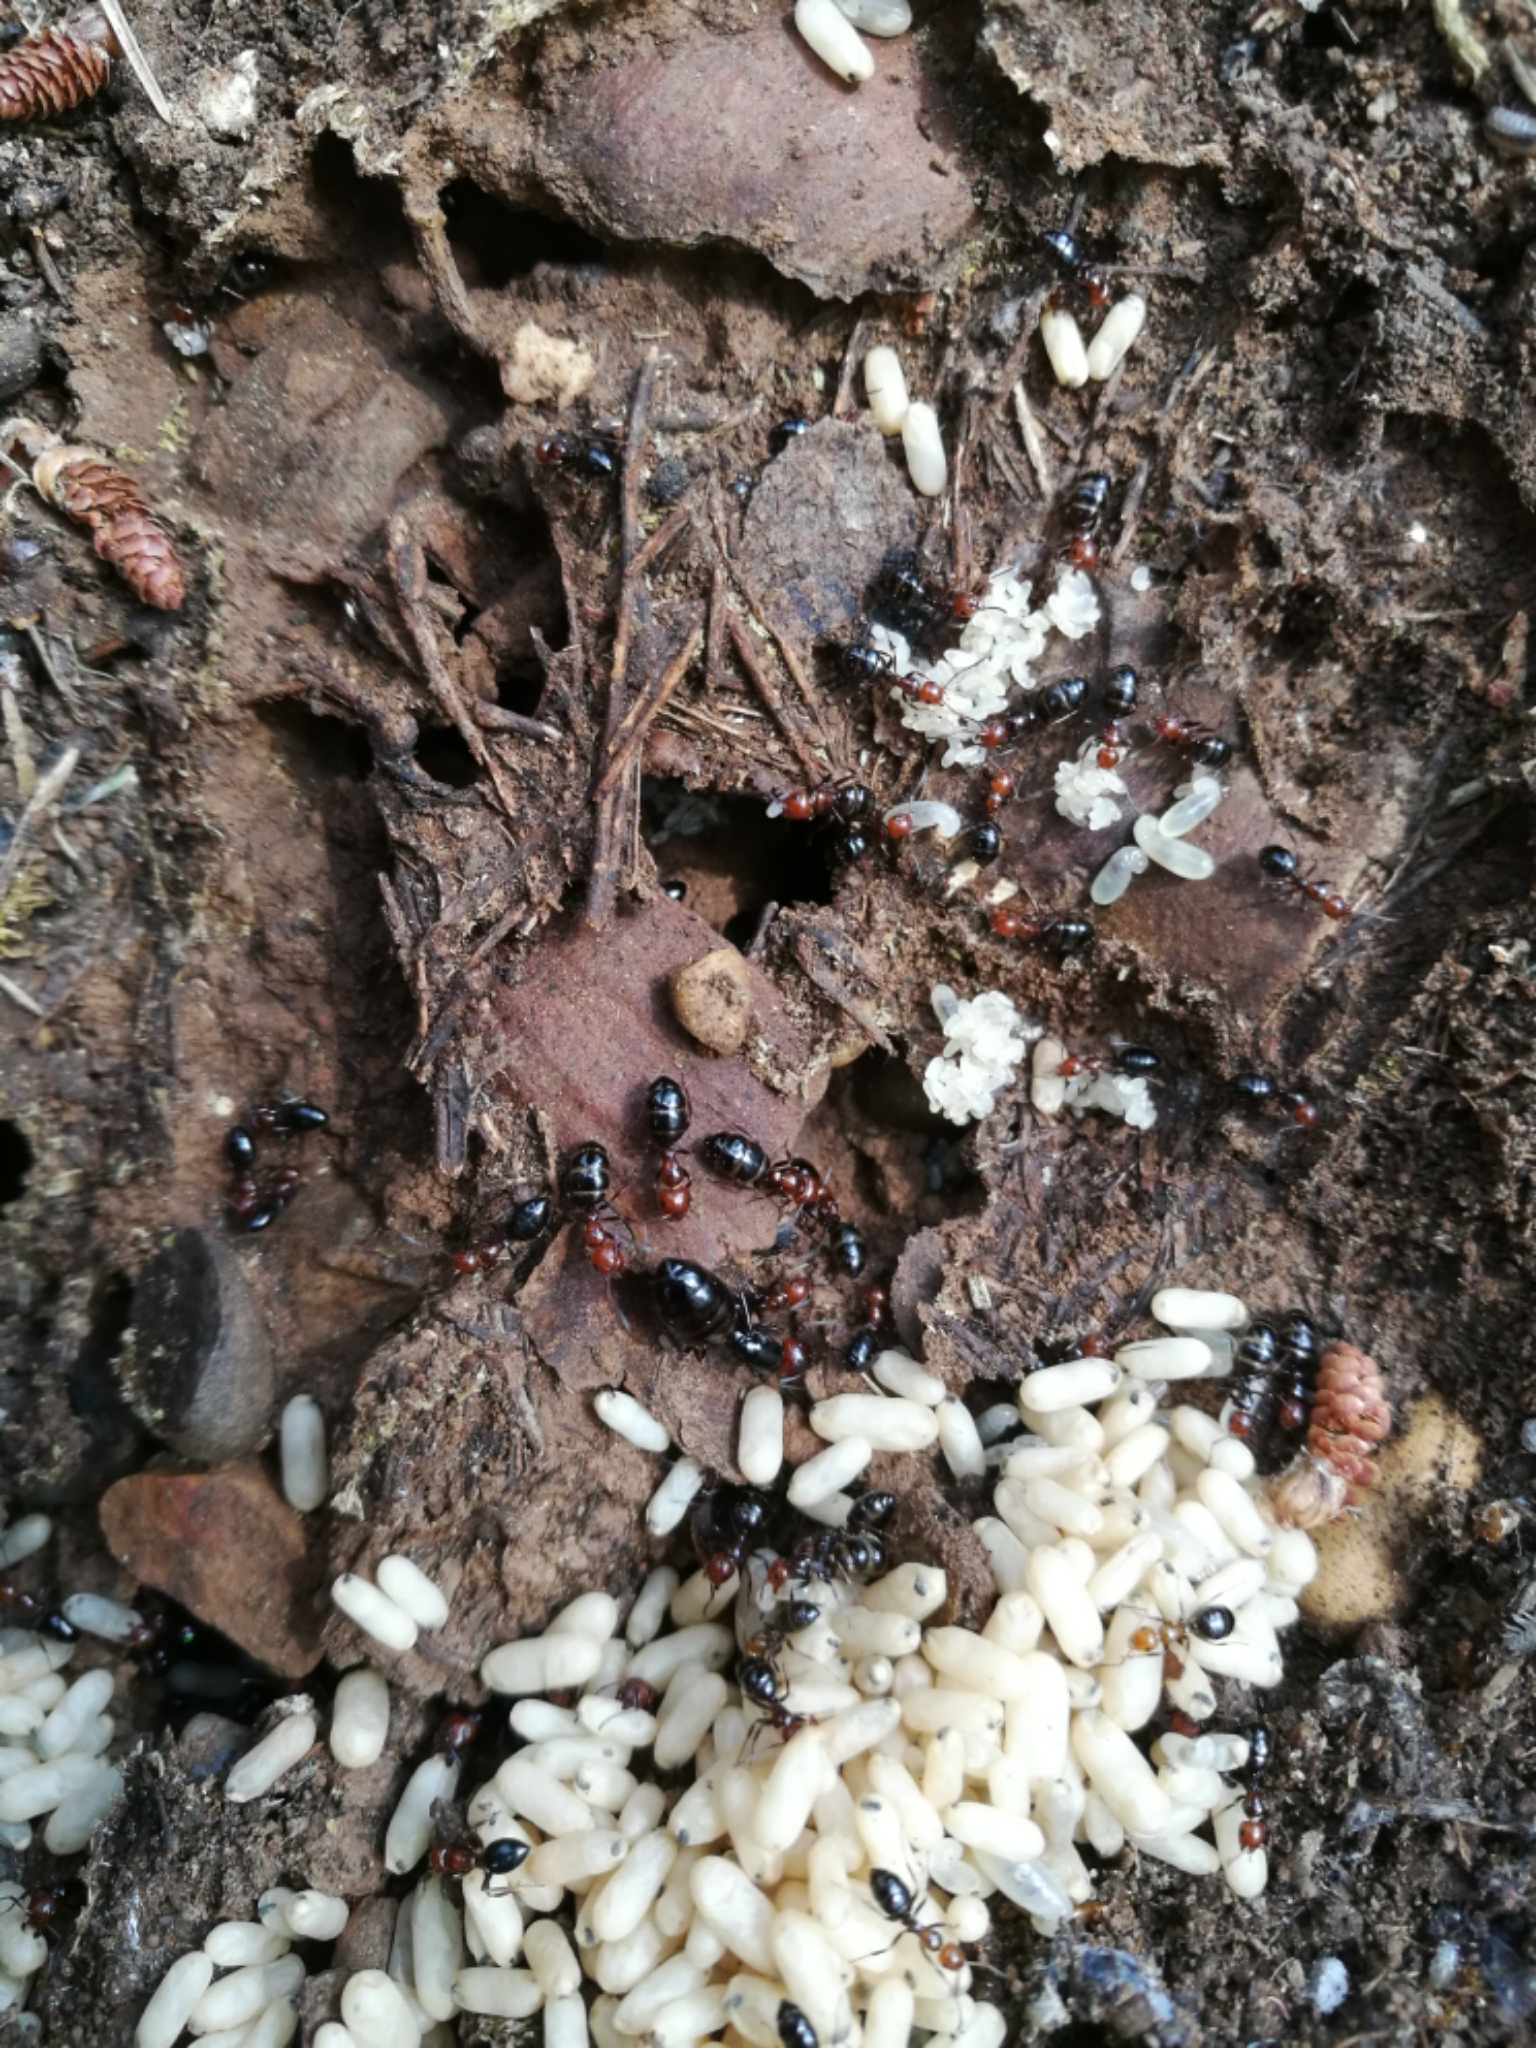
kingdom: Animalia
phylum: Arthropoda
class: Insecta
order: Hymenoptera
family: Formicidae
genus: Camponotus
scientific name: Camponotus lateralis
